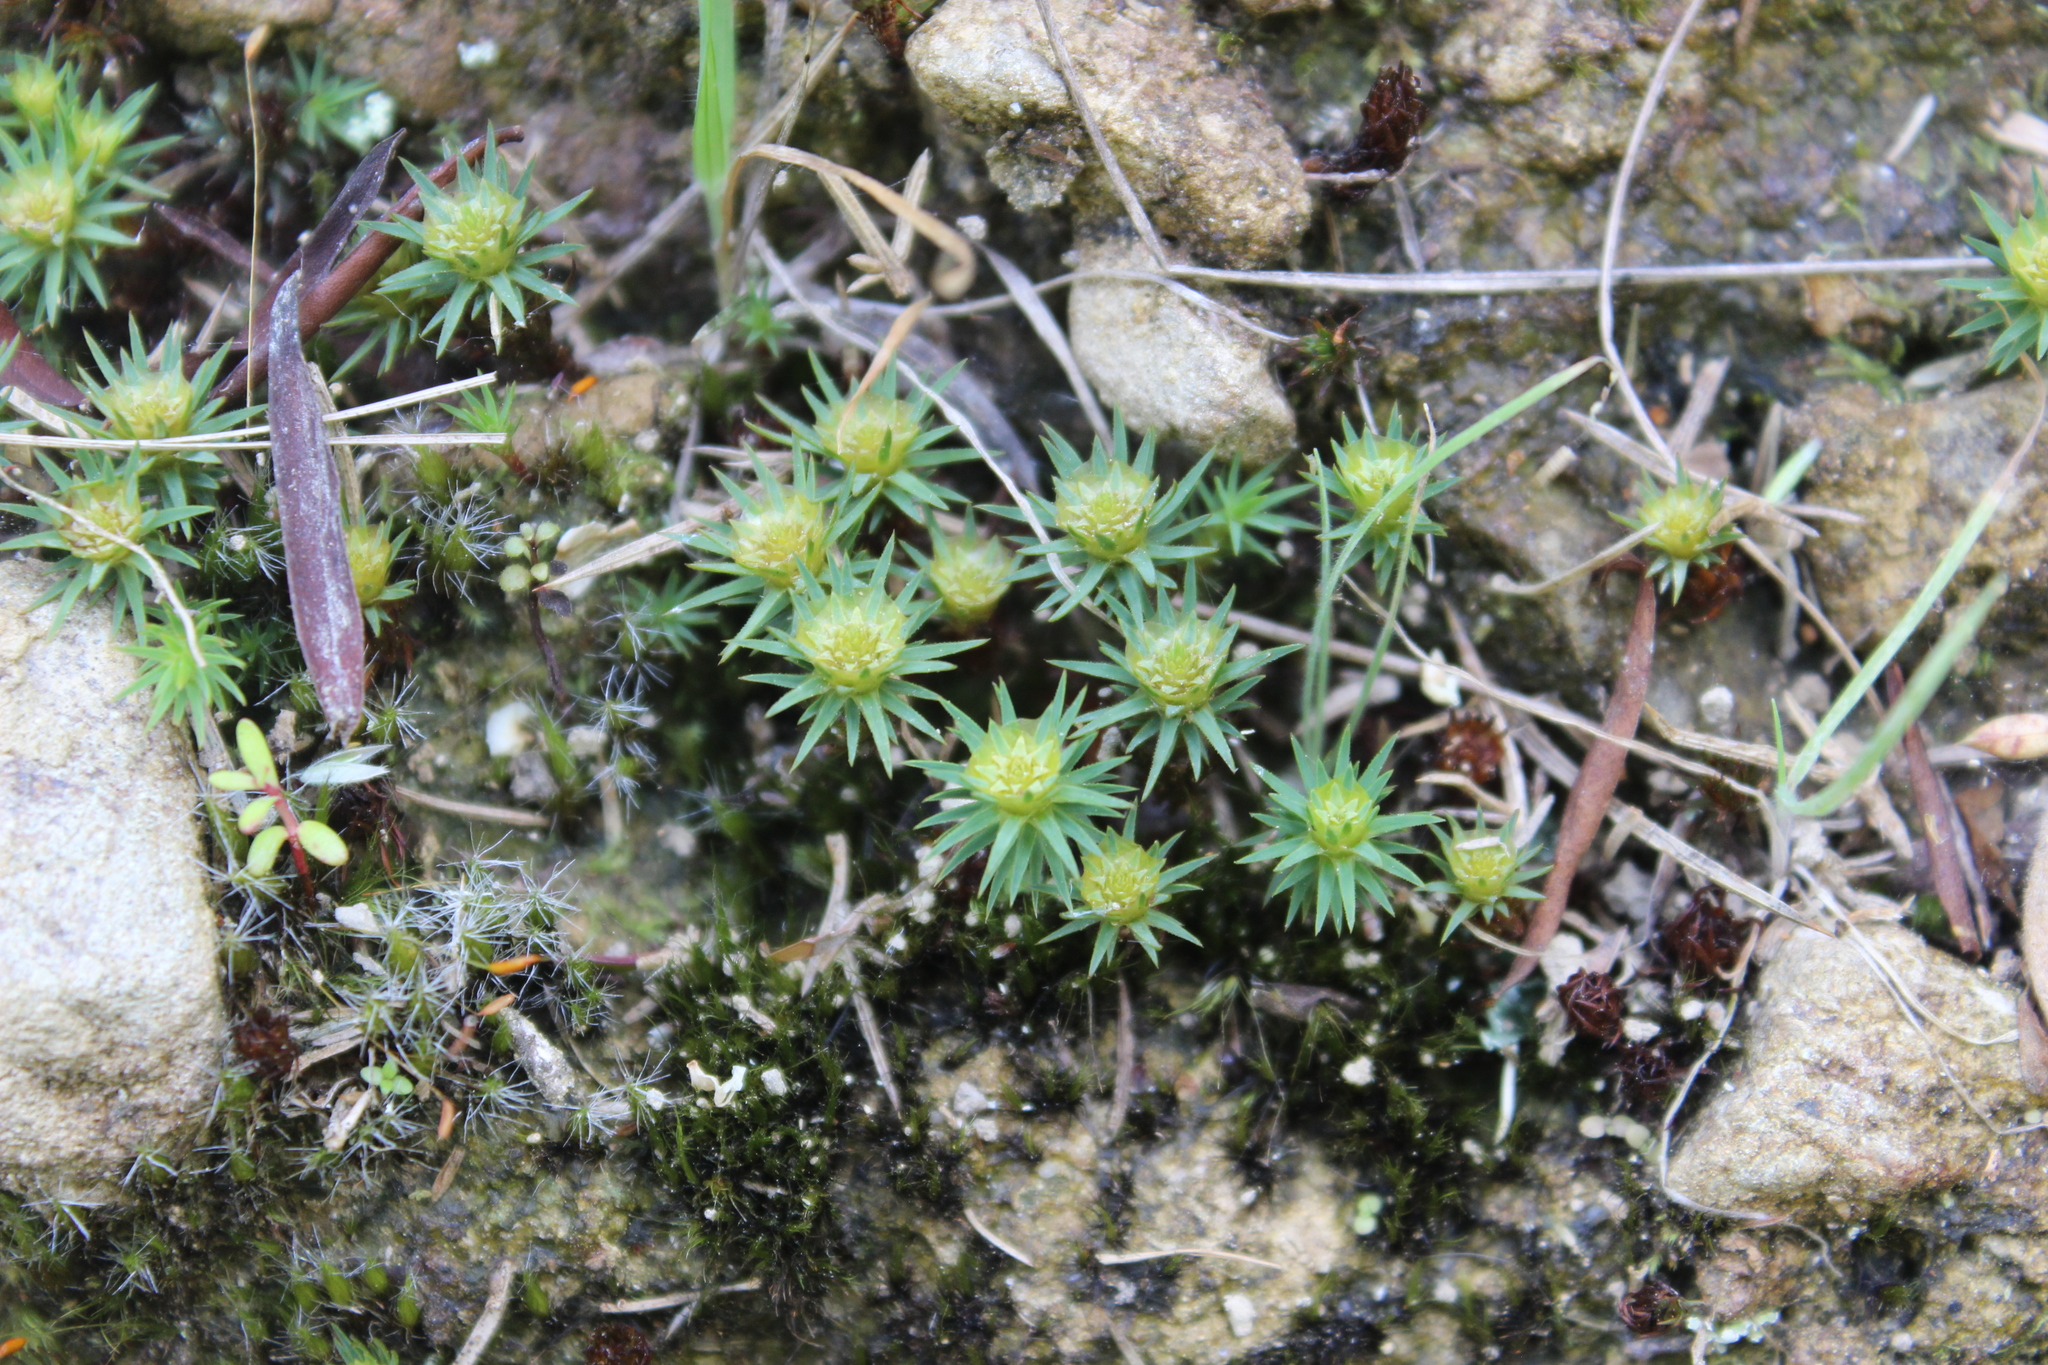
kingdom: Plantae
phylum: Bryophyta
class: Polytrichopsida
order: Polytrichales
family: Polytrichaceae
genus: Polytrichum
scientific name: Polytrichum juniperinum
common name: Juniper haircap moss
